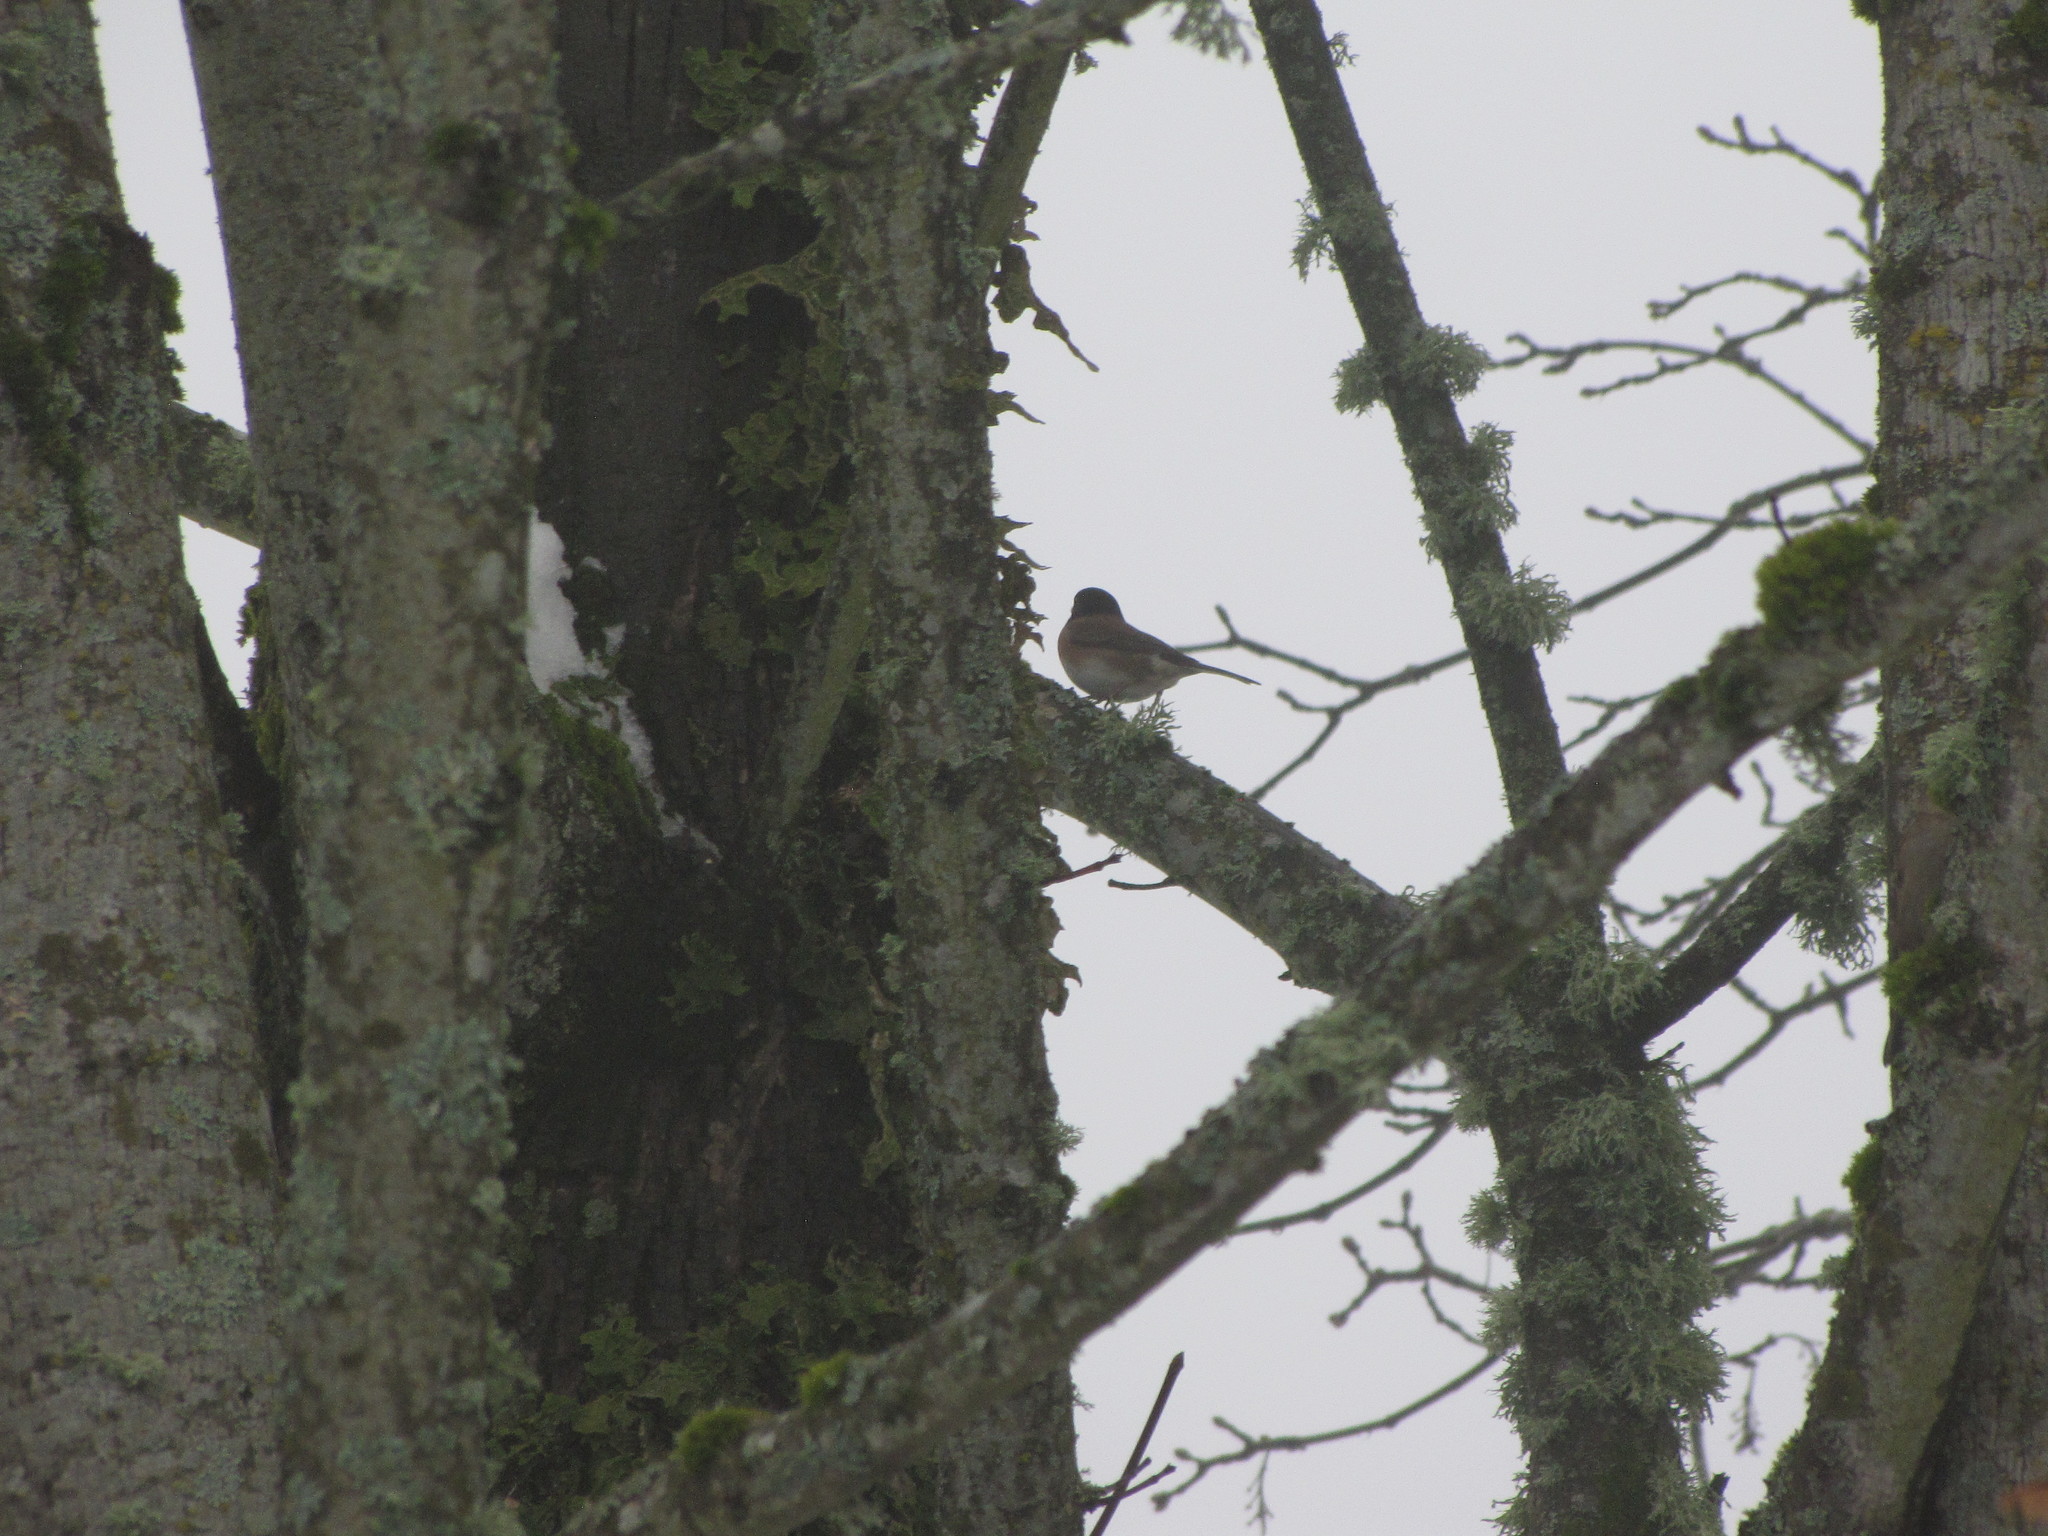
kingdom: Animalia
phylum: Chordata
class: Aves
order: Passeriformes
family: Passerellidae
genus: Junco
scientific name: Junco hyemalis
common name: Dark-eyed junco
